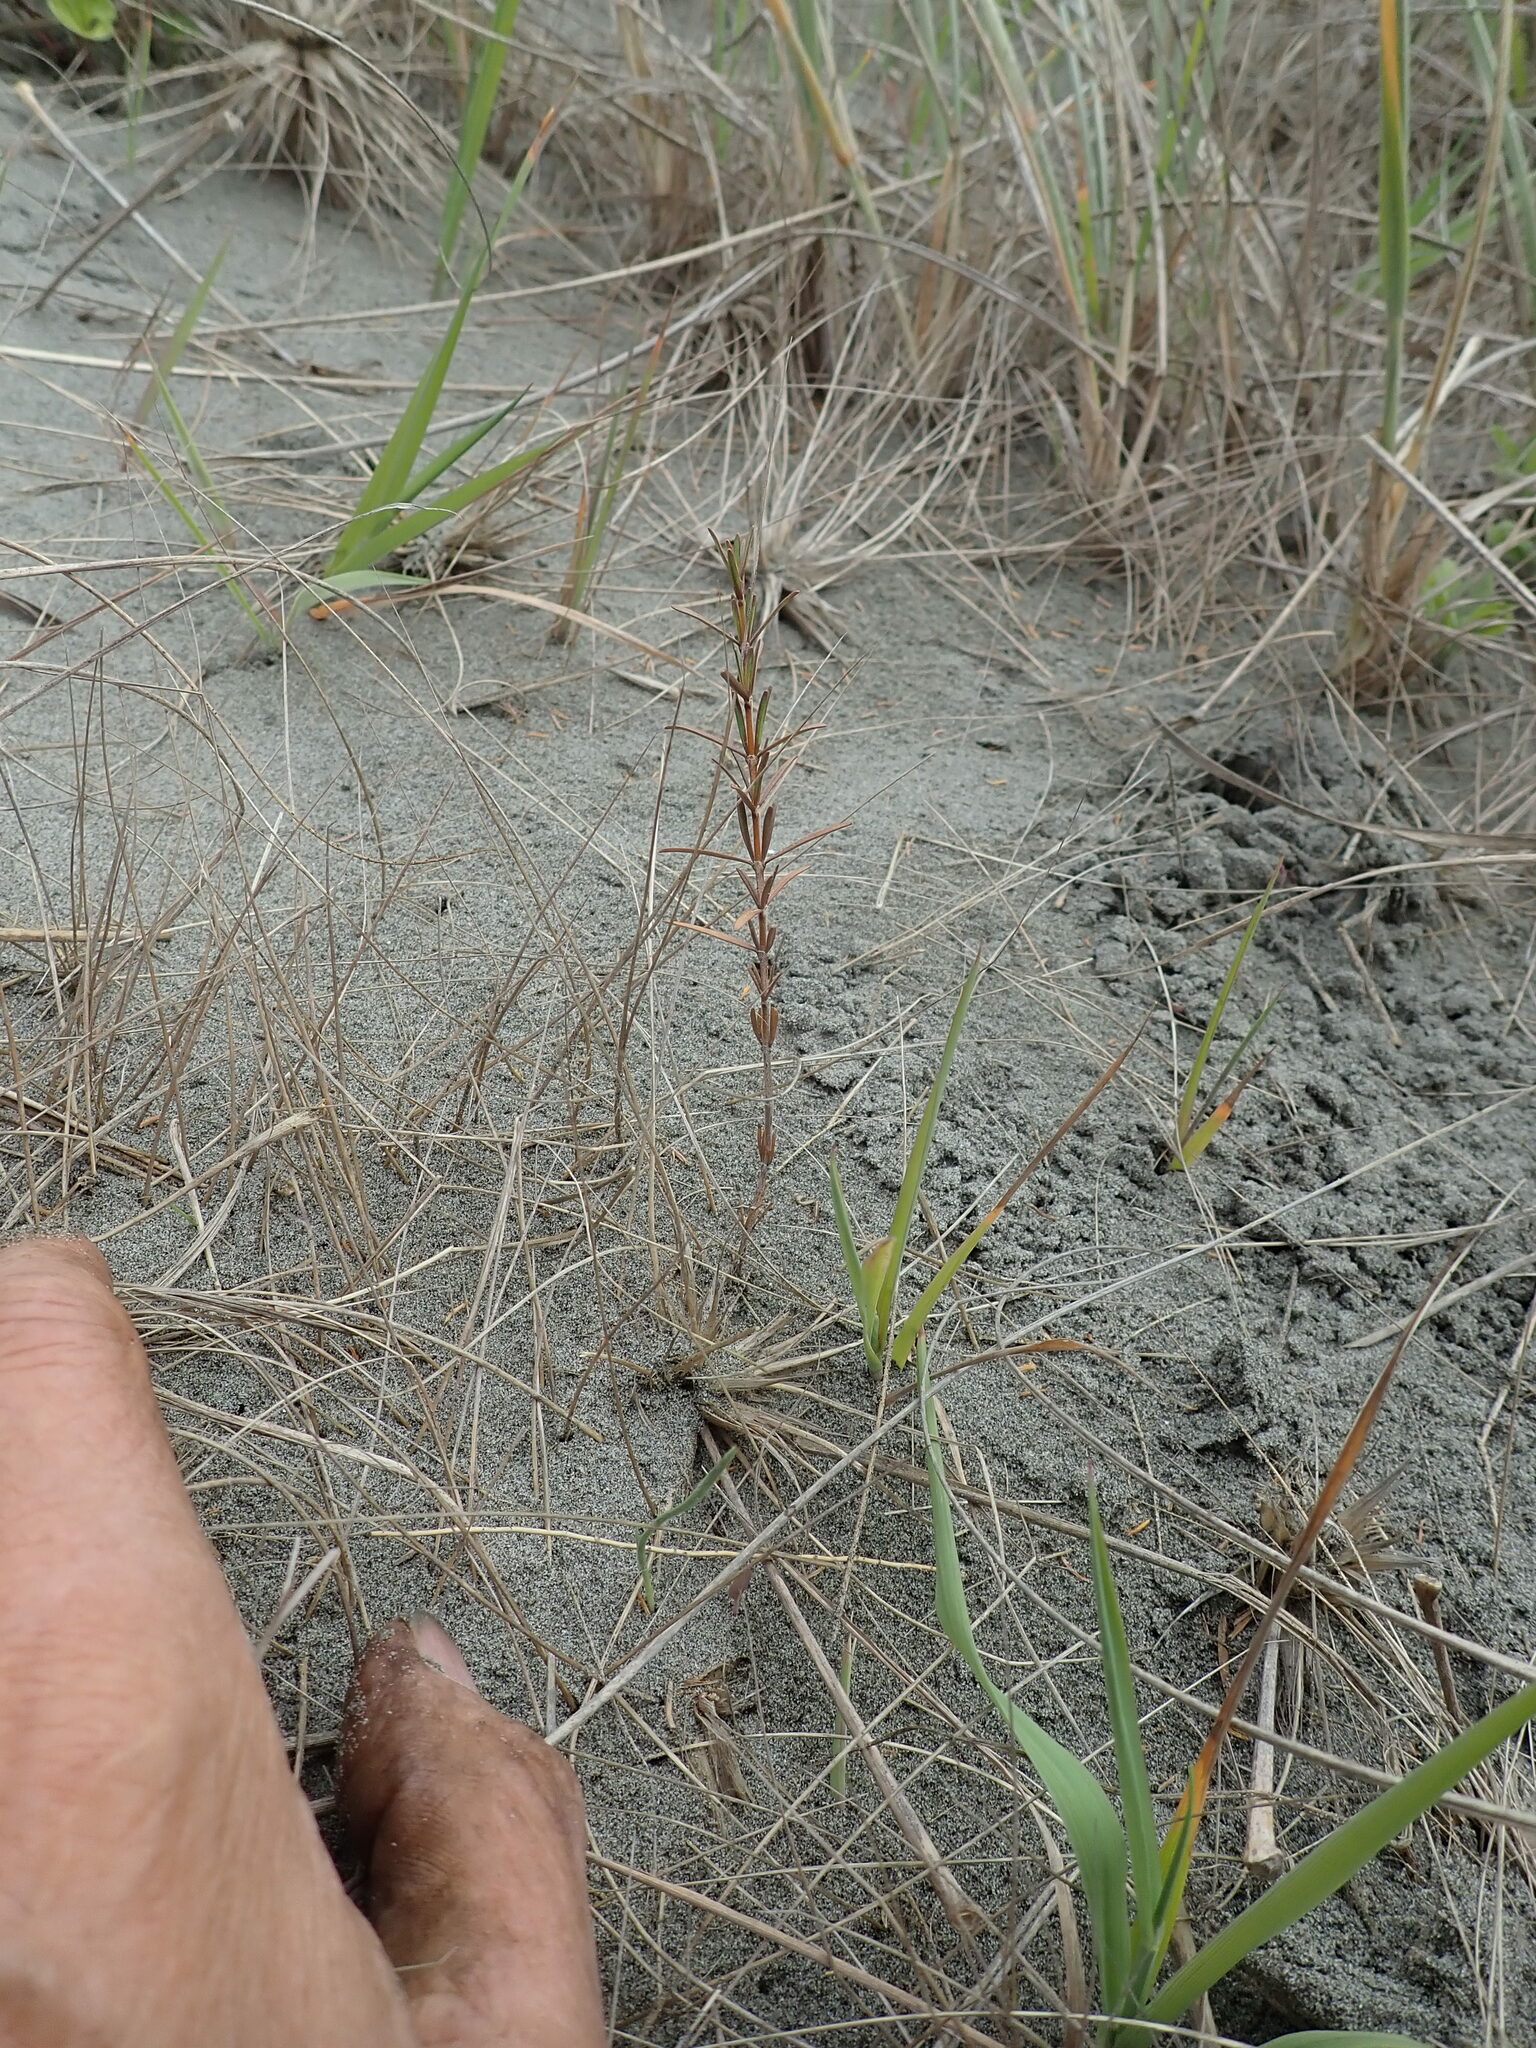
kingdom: Plantae
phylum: Tracheophyta
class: Magnoliopsida
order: Gentianales
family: Rubiaceae
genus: Coprosma
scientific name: Coprosma acerosa
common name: Sand coprosma
